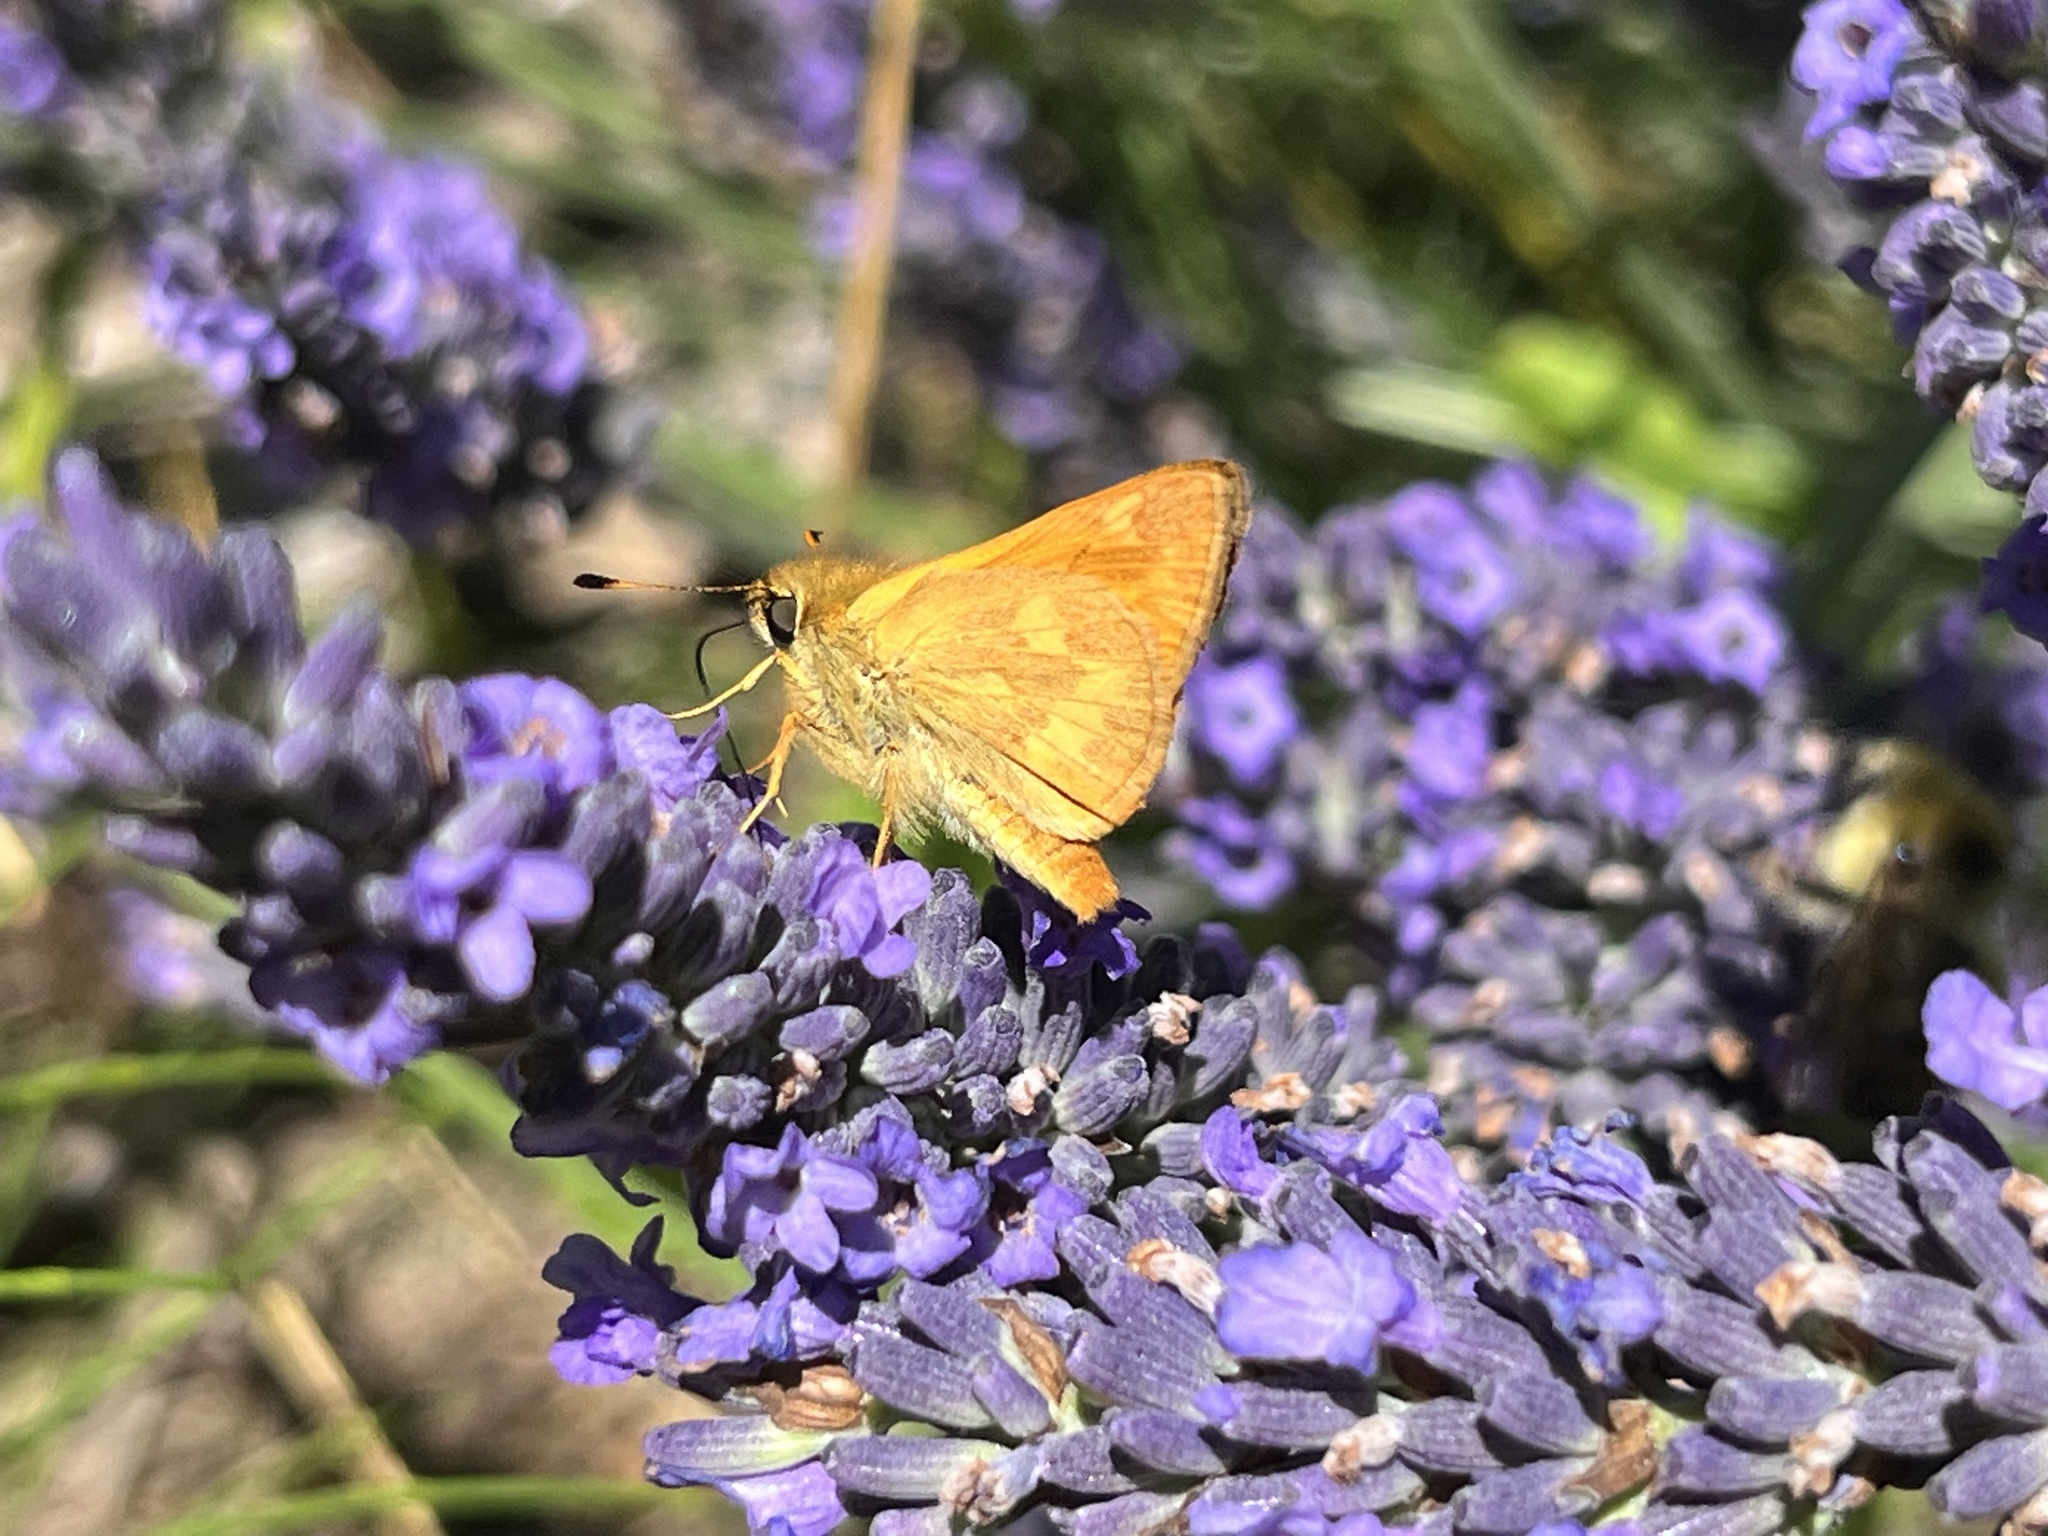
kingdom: Animalia
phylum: Arthropoda
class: Insecta
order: Lepidoptera
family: Hesperiidae
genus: Ochlodes
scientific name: Ochlodes sylvanoides
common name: Woodland skipper
